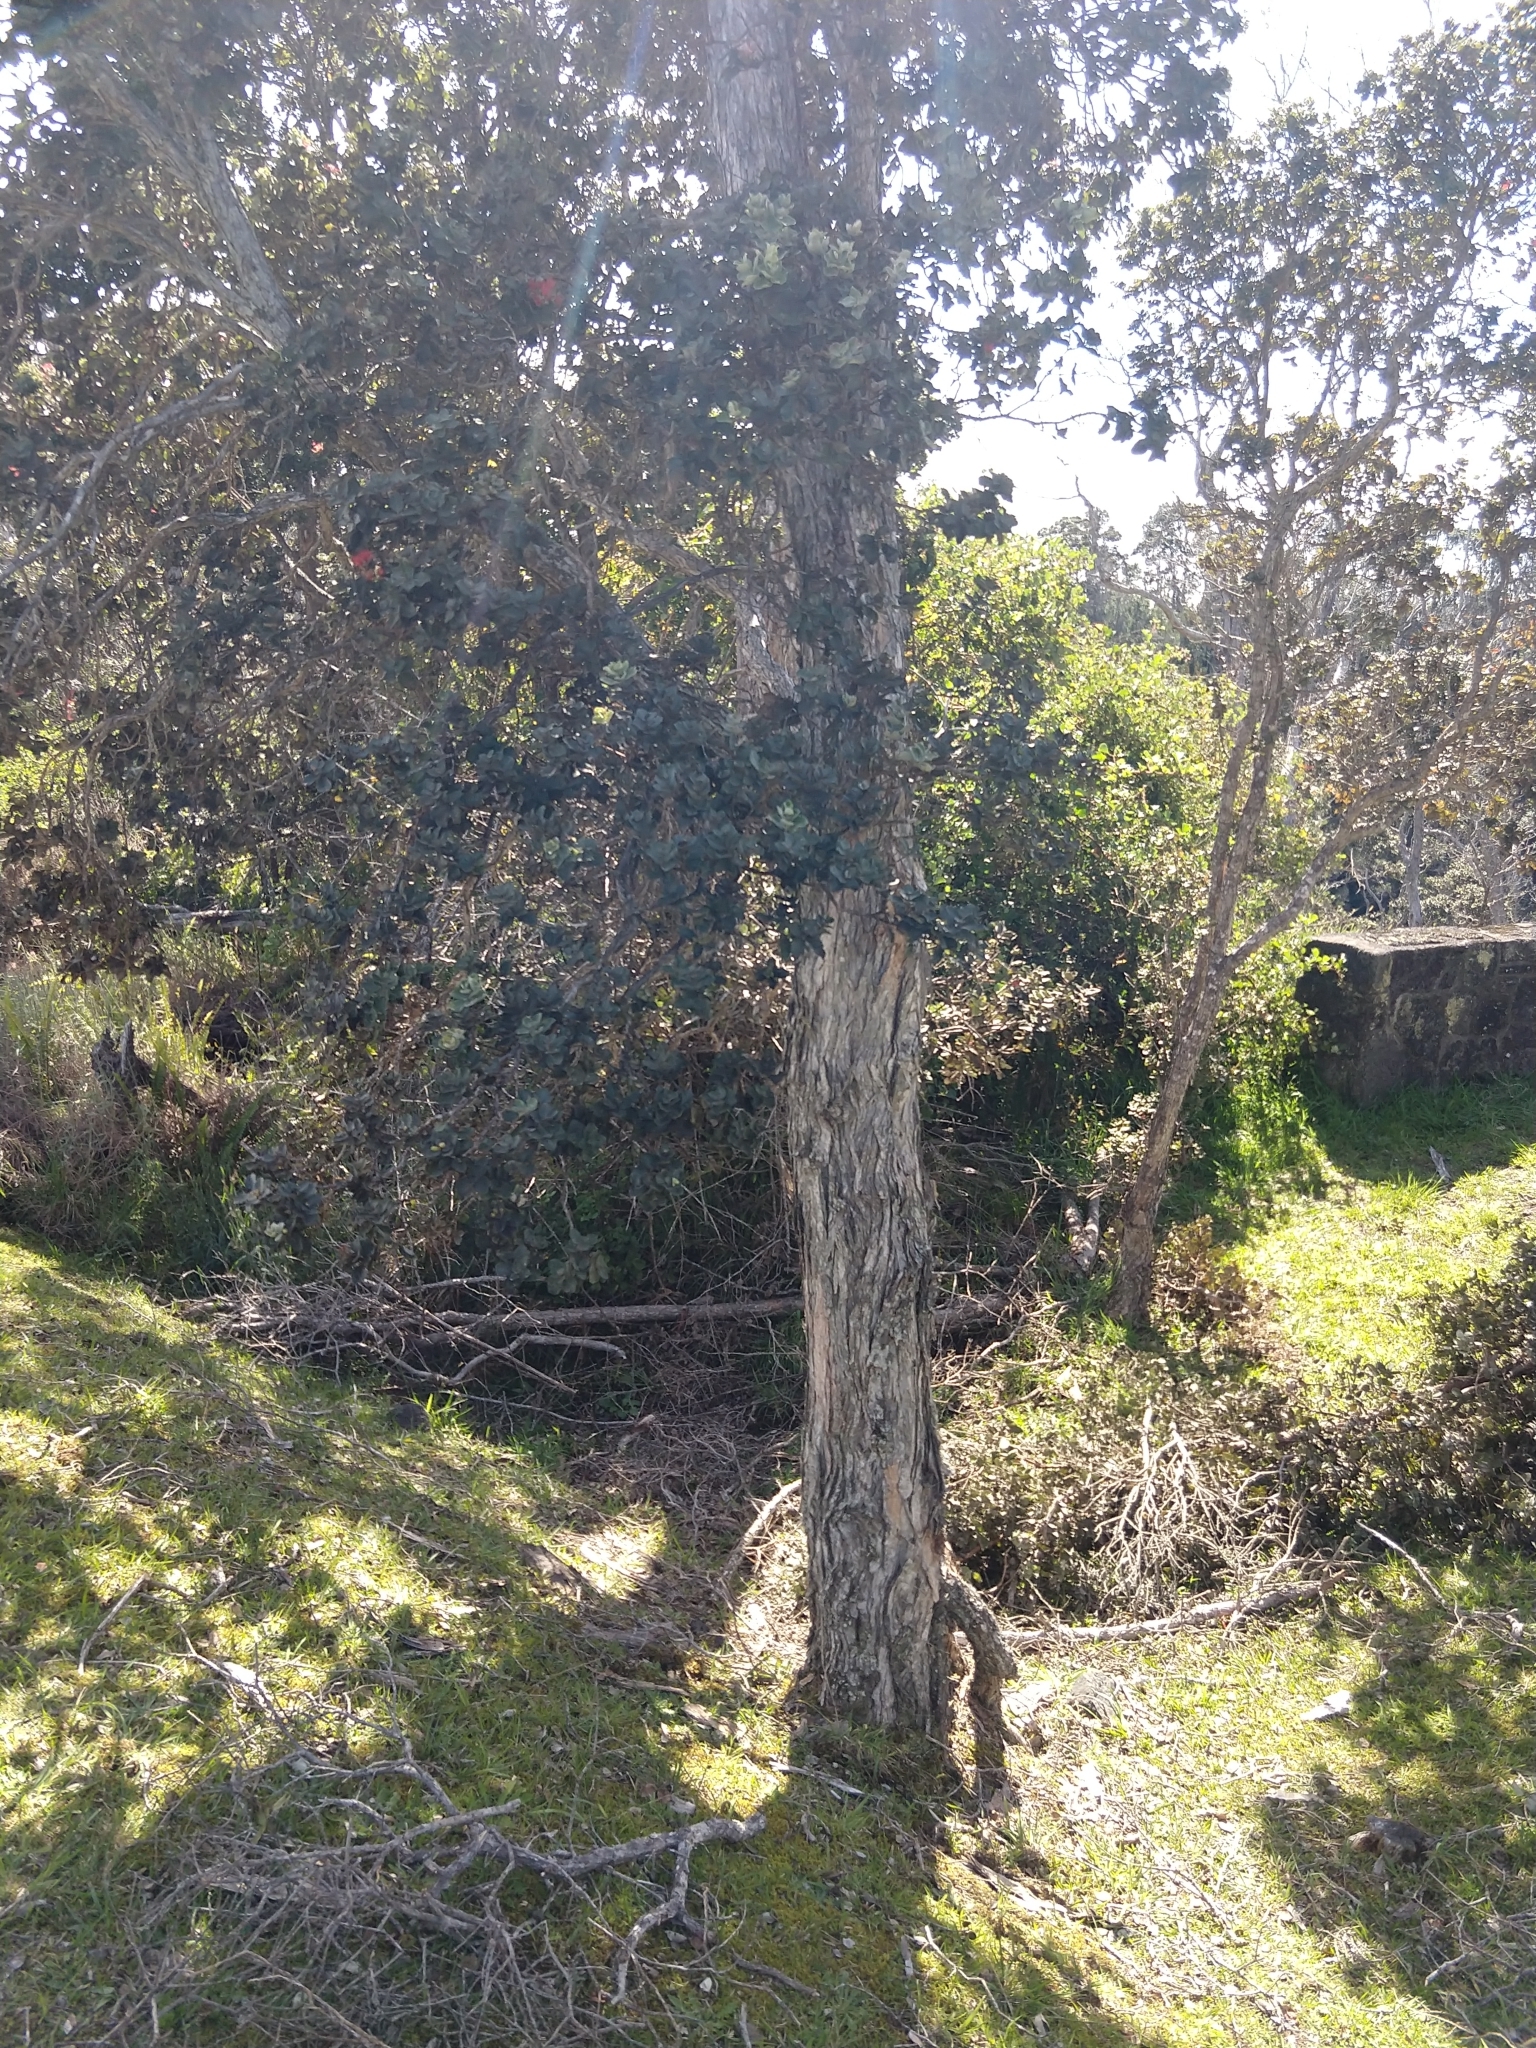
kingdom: Plantae
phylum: Tracheophyta
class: Magnoliopsida
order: Myrtales
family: Myrtaceae
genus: Metrosideros
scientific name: Metrosideros polymorpha
